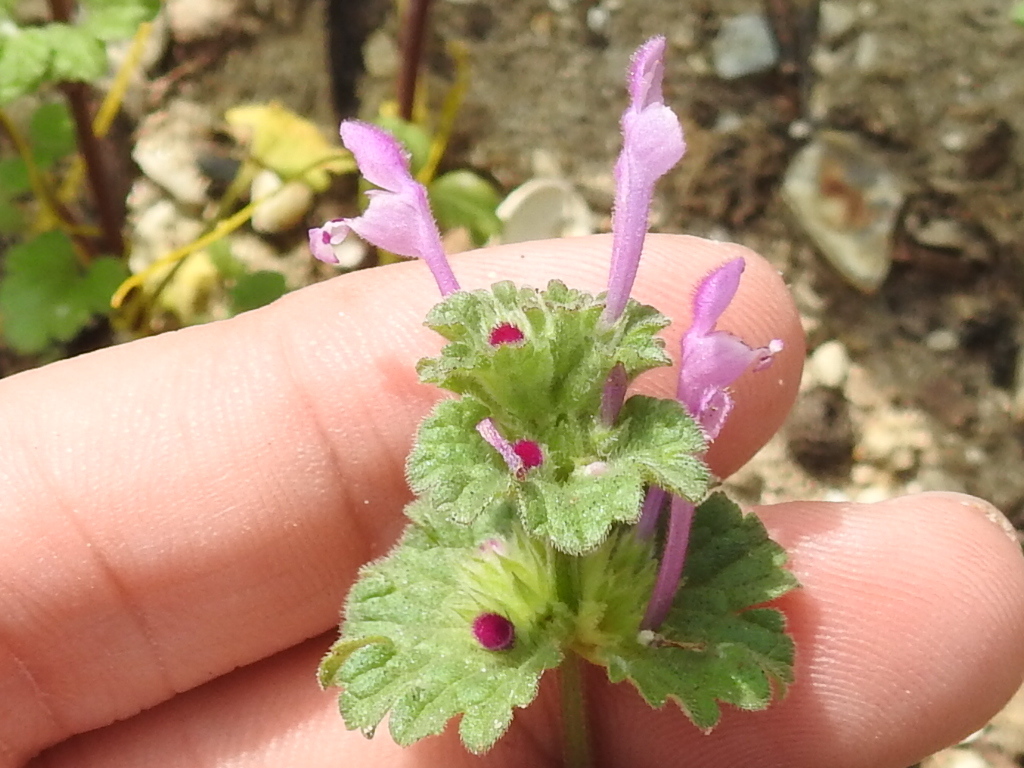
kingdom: Plantae
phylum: Tracheophyta
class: Magnoliopsida
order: Lamiales
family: Lamiaceae
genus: Lamium
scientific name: Lamium amplexicaule
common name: Henbit dead-nettle
